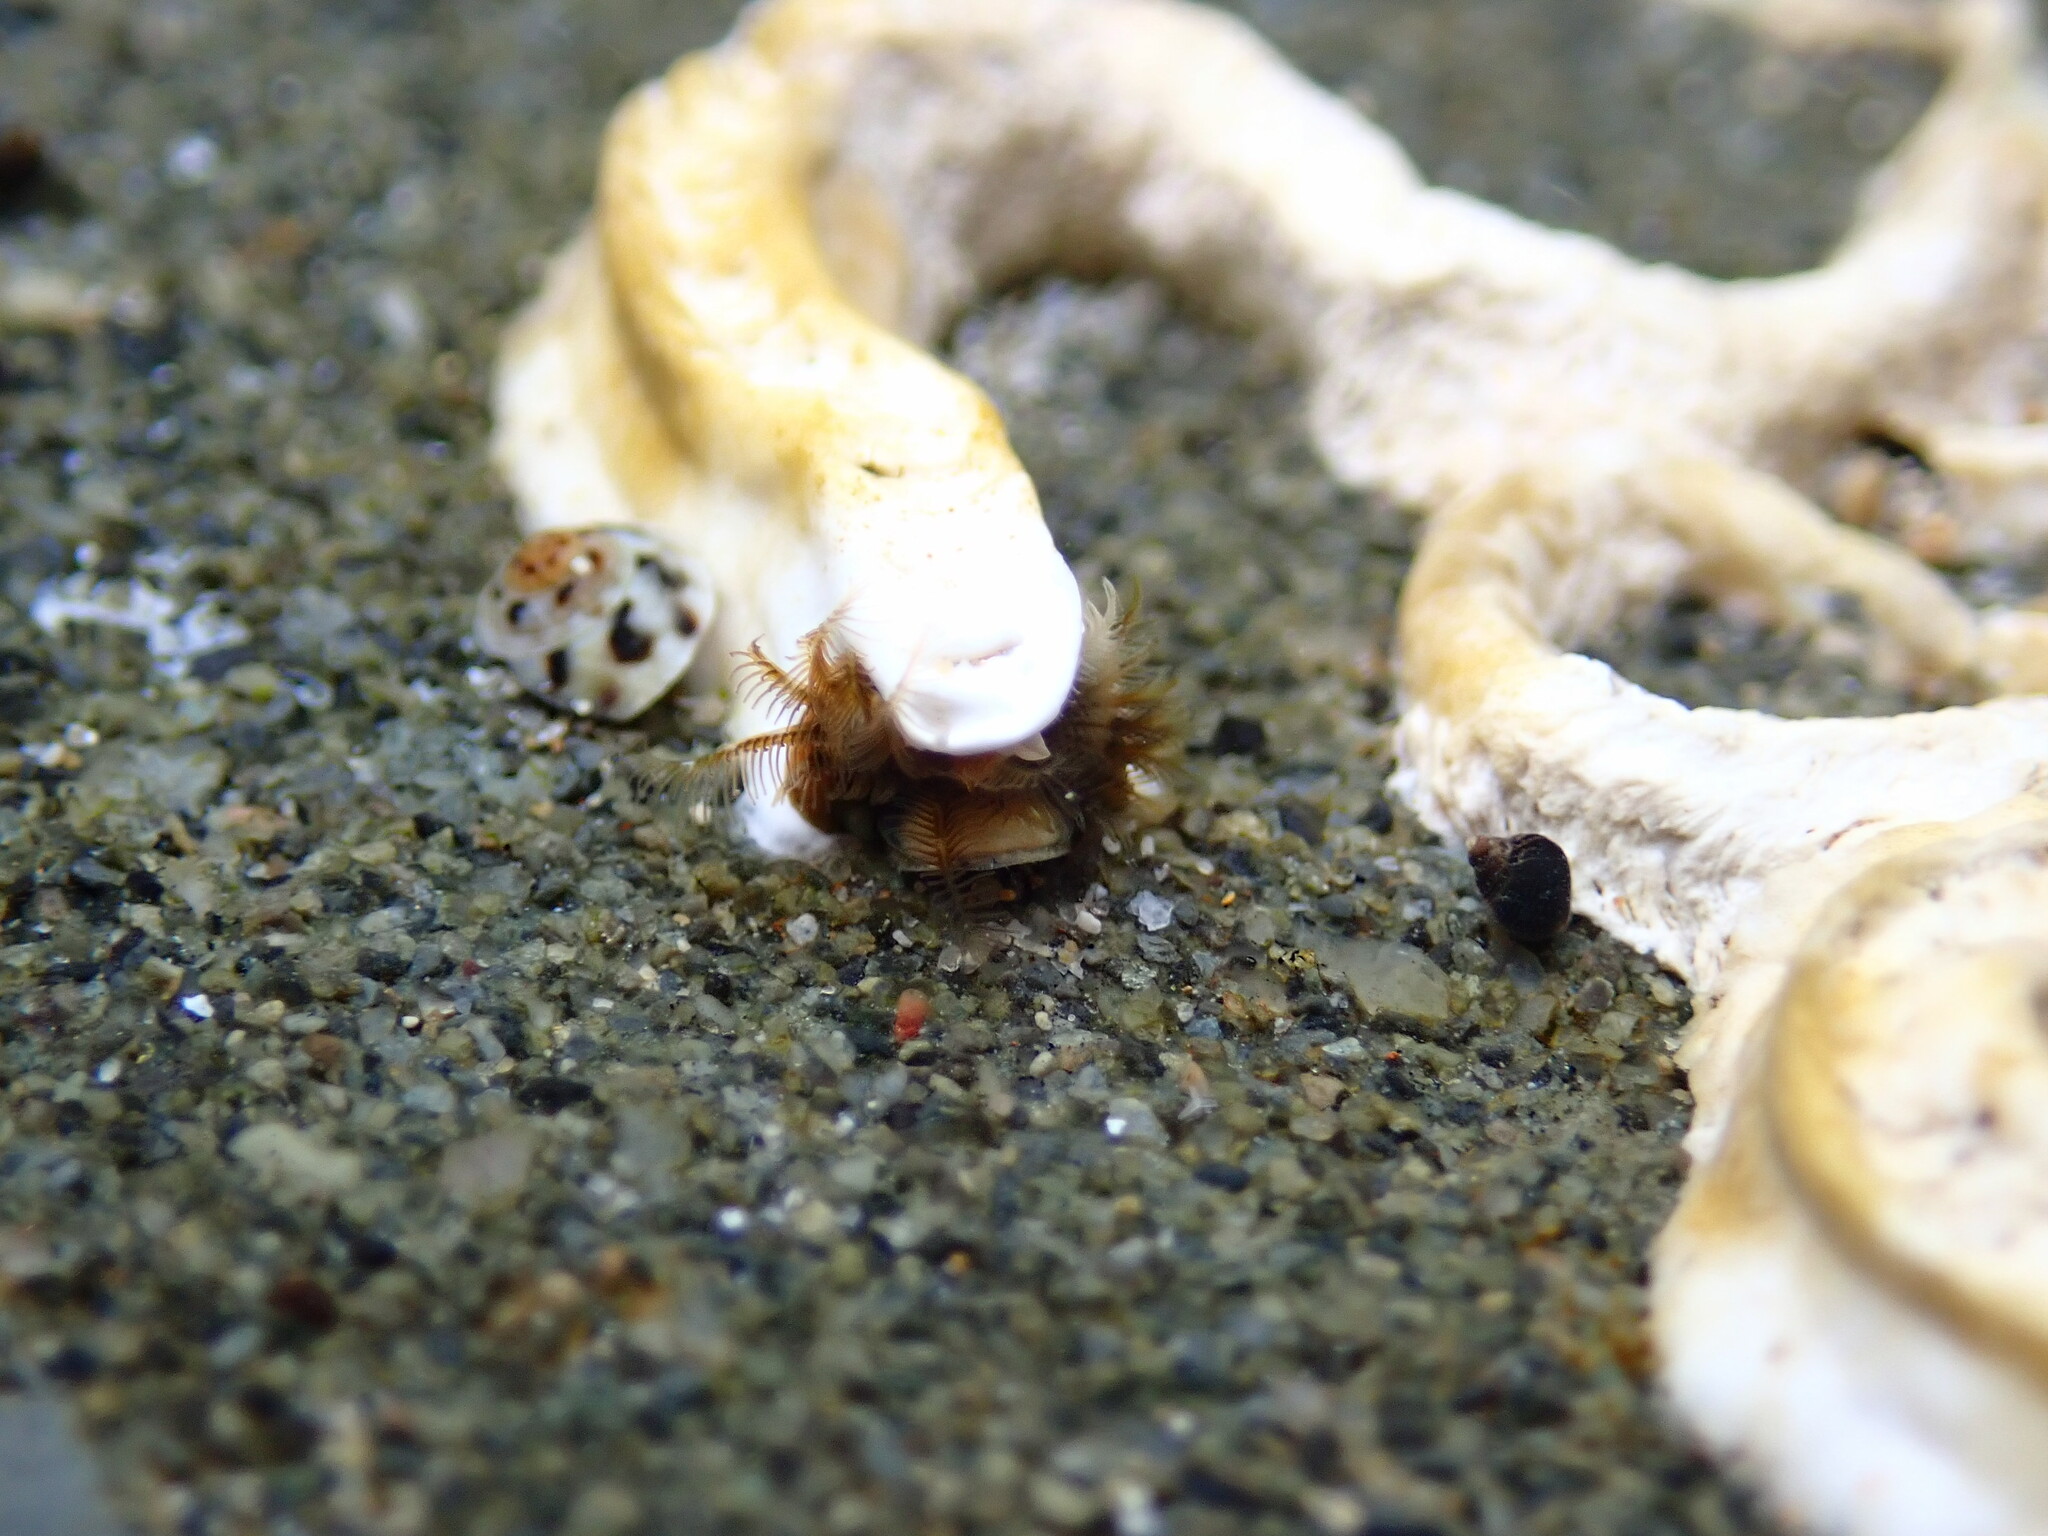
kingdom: Animalia
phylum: Annelida
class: Polychaeta
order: Sabellida
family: Serpulidae
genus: Galeolaria
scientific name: Galeolaria caespitosa
